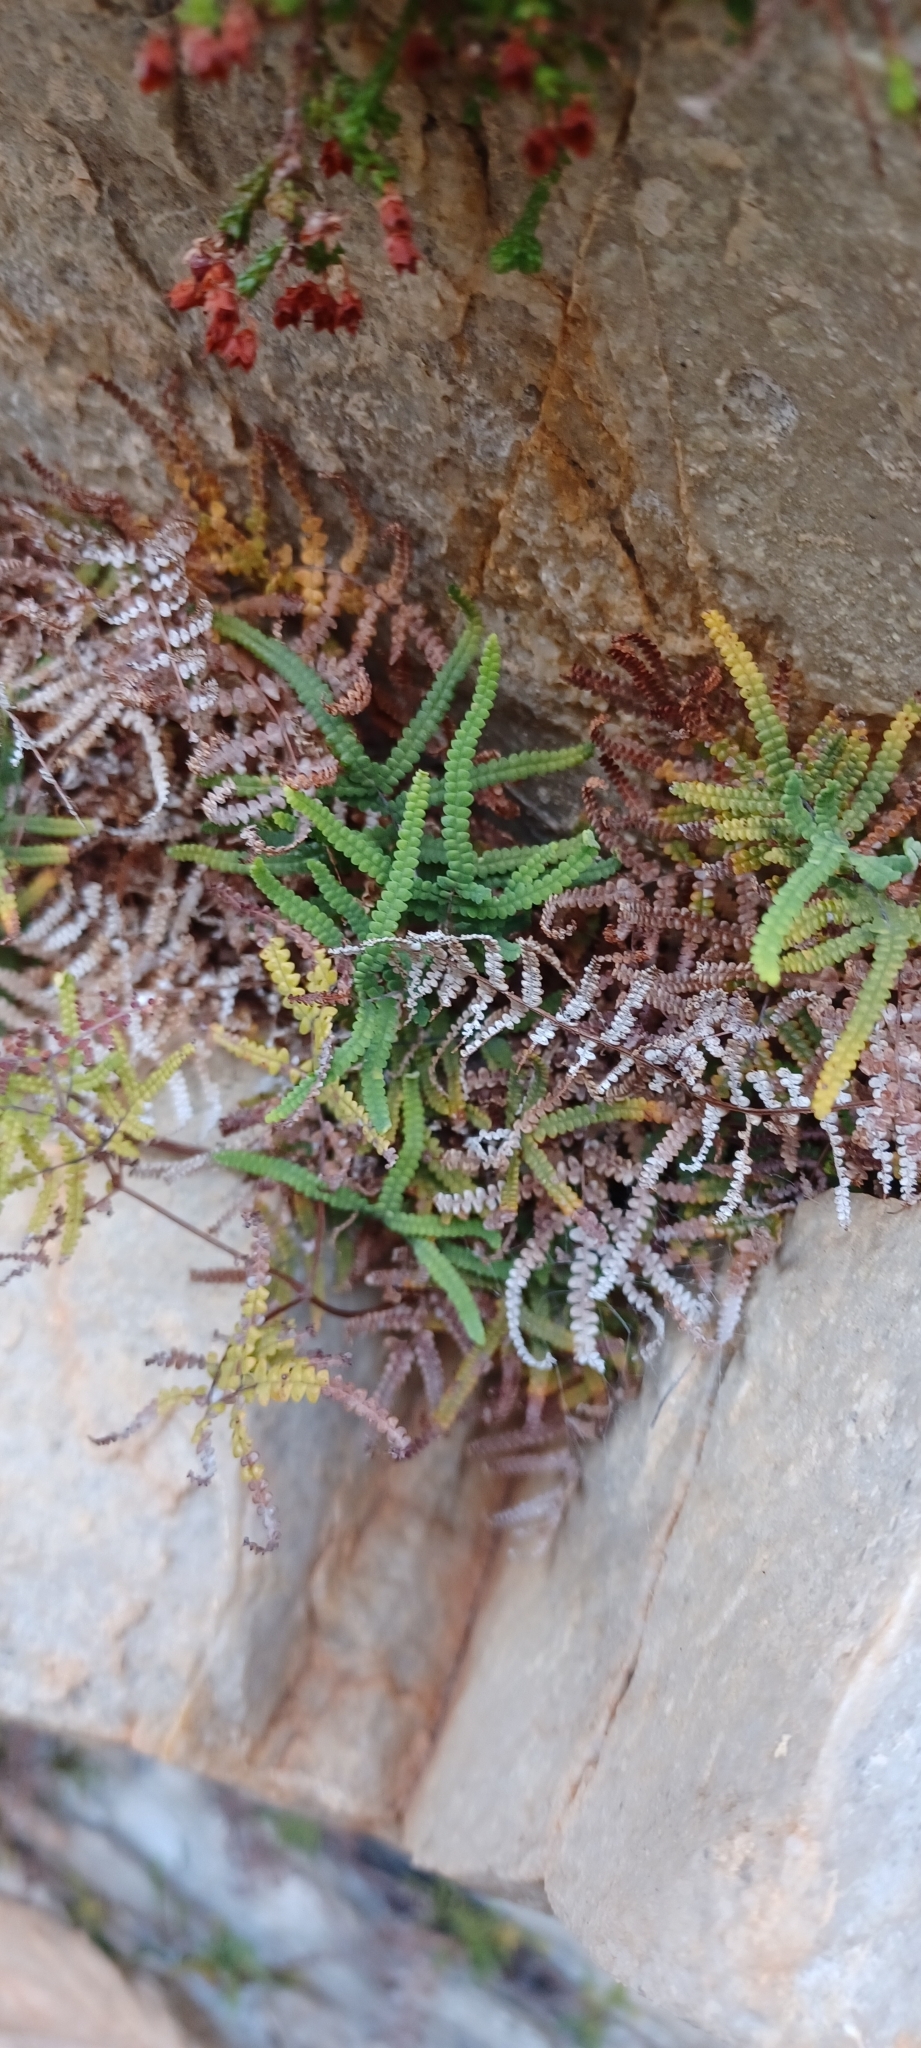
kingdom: Plantae
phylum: Tracheophyta
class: Polypodiopsida
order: Gleicheniales
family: Gleicheniaceae
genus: Gleichenia
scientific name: Gleichenia polypodioides
